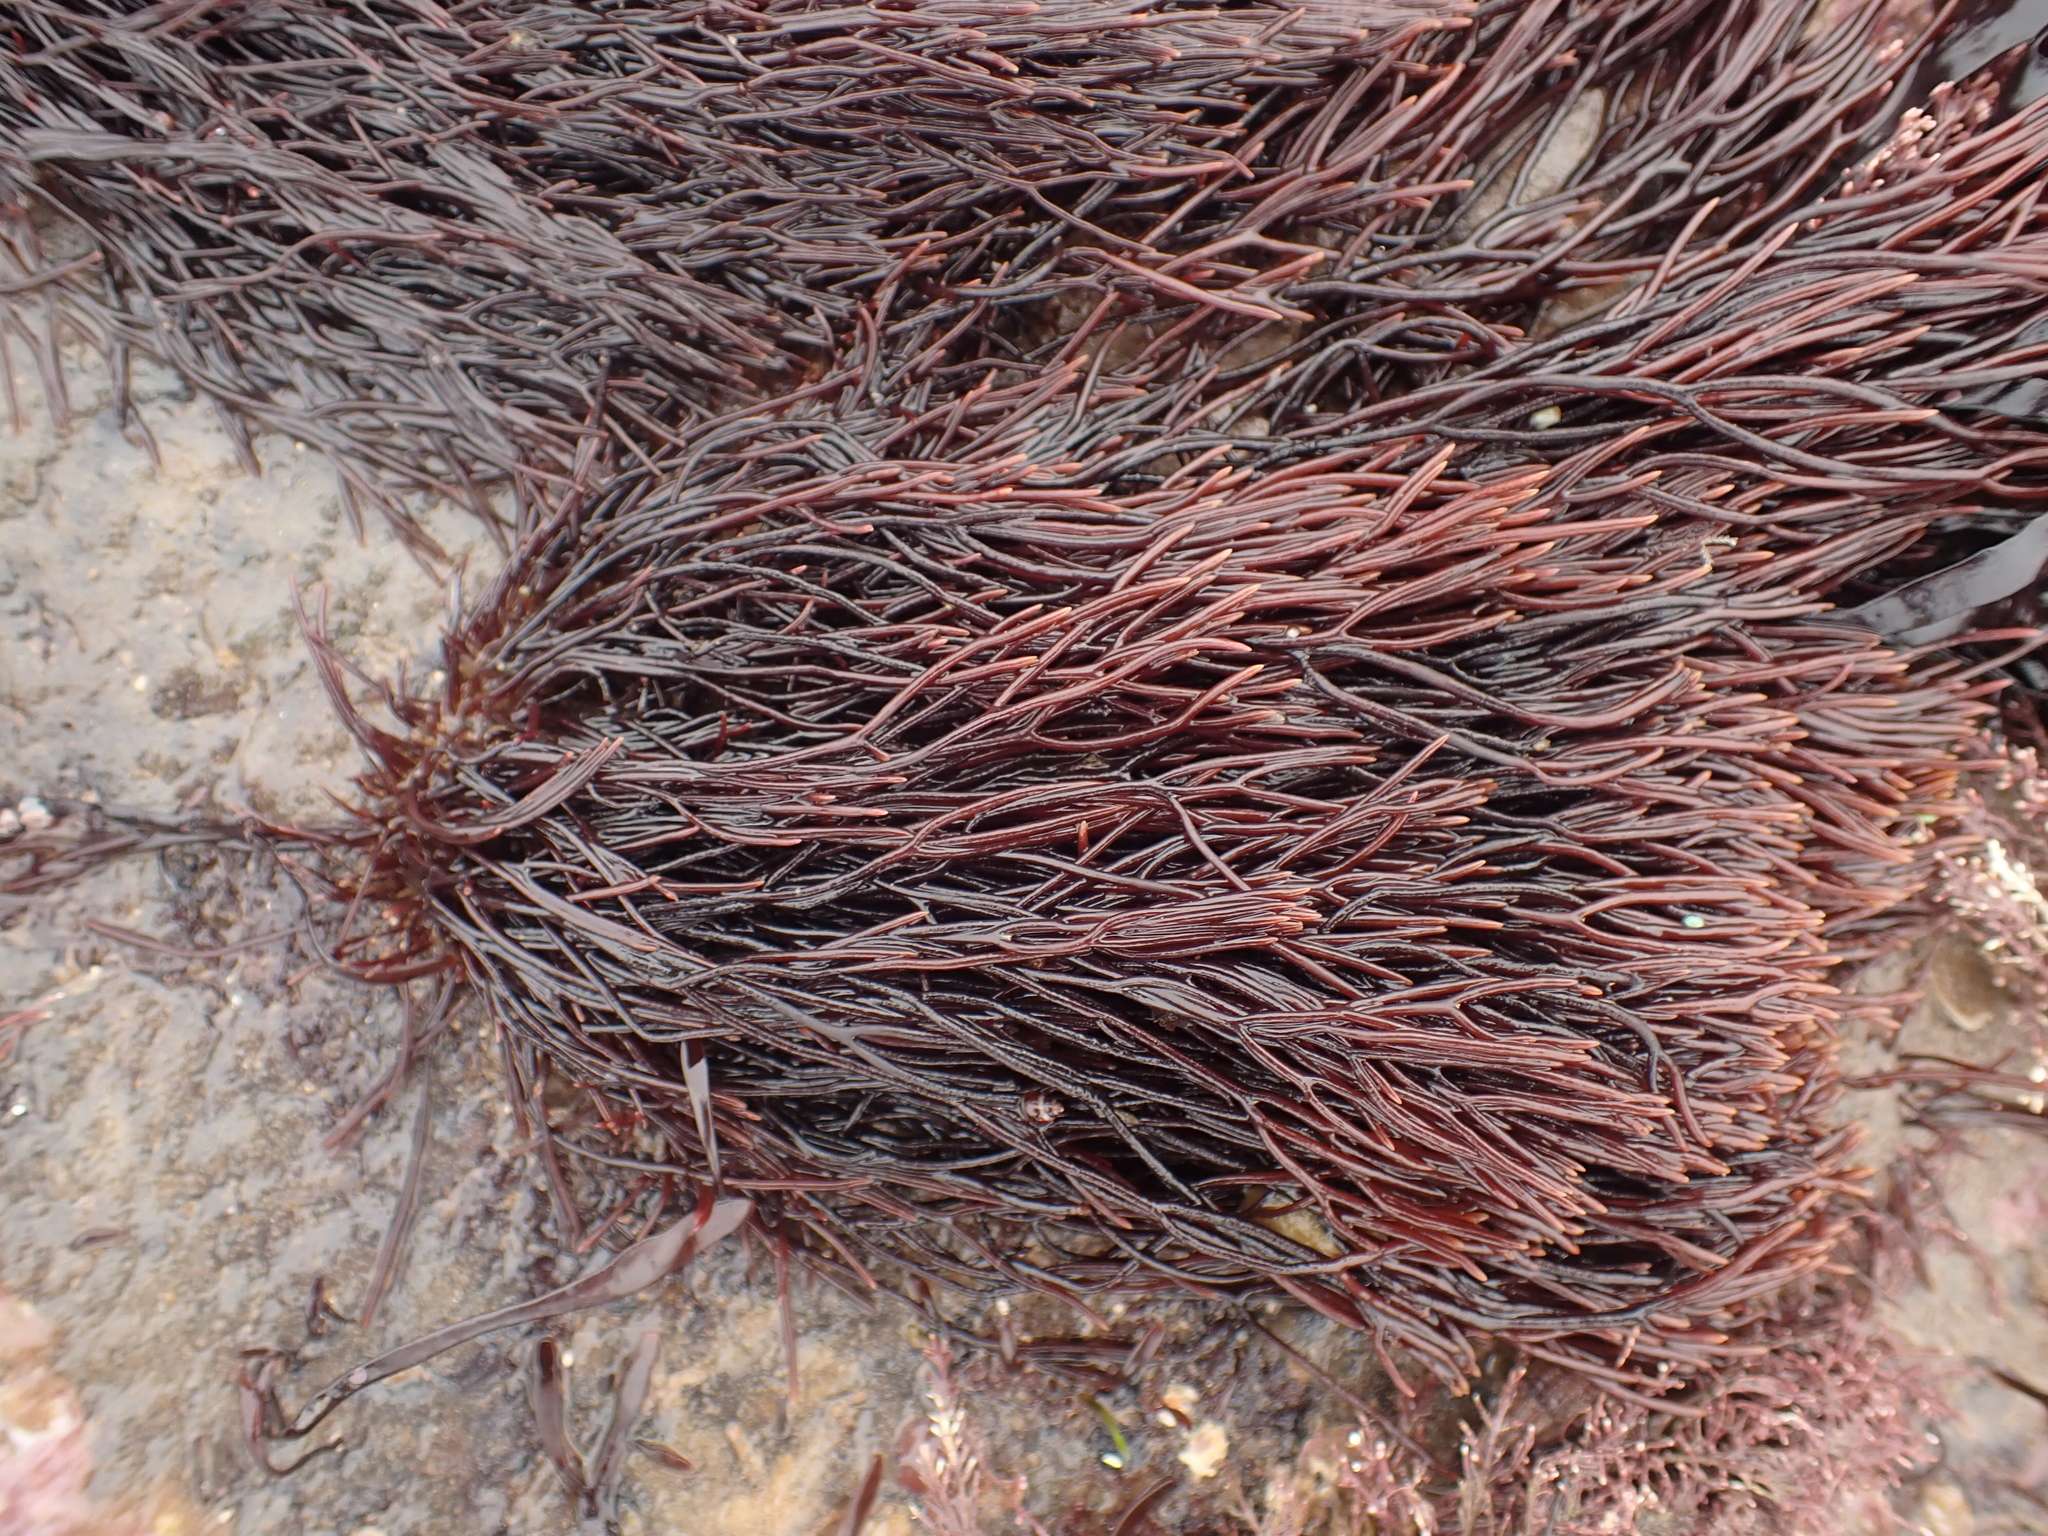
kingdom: Plantae
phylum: Rhodophyta
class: Florideophyceae
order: Gigartinales
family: Furcellariaceae
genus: Furcellaria
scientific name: Furcellaria lumbricalis
